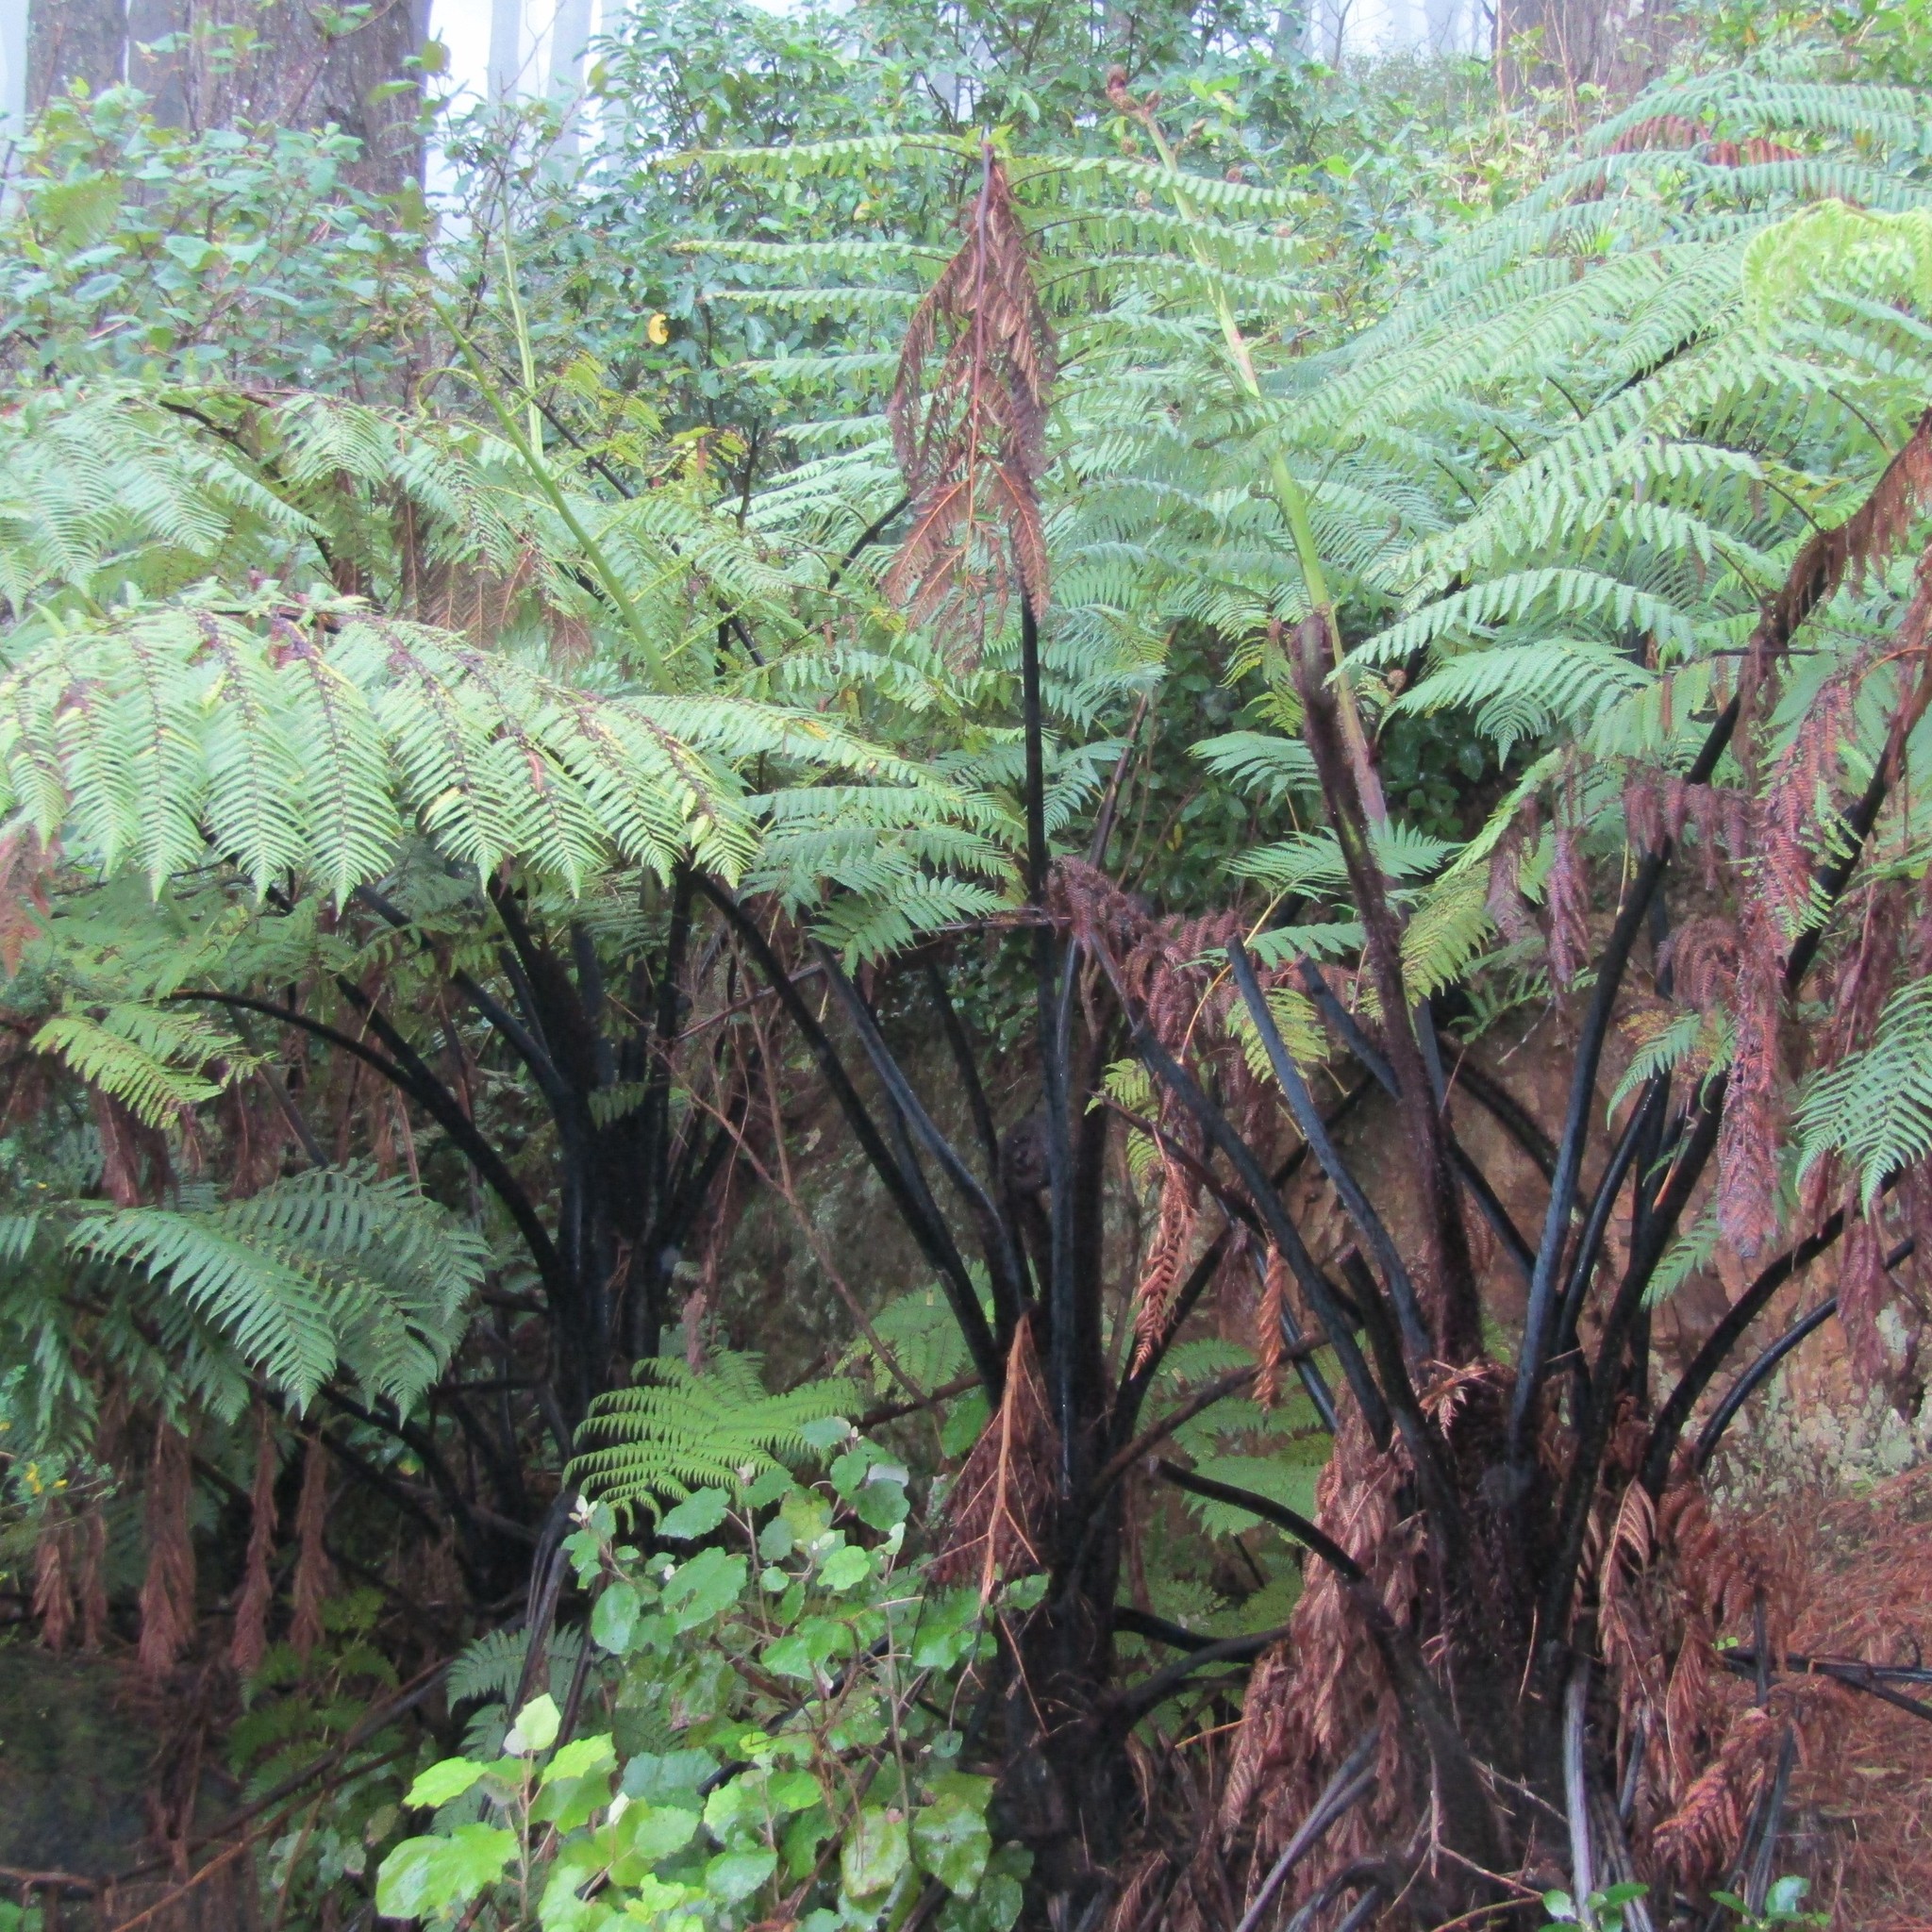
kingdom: Plantae
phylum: Tracheophyta
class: Polypodiopsida
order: Cyatheales
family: Cyatheaceae
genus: Sphaeropteris
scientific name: Sphaeropteris medullaris
